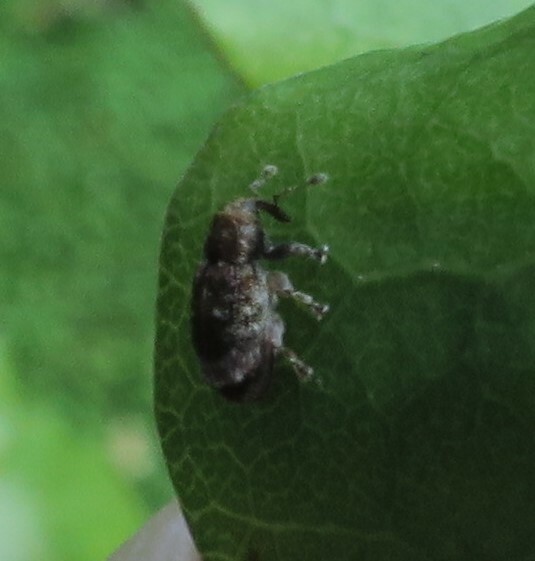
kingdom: Animalia
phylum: Arthropoda
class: Insecta
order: Coleoptera
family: Curculionidae
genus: Aneuma
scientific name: Aneuma fasciatum
